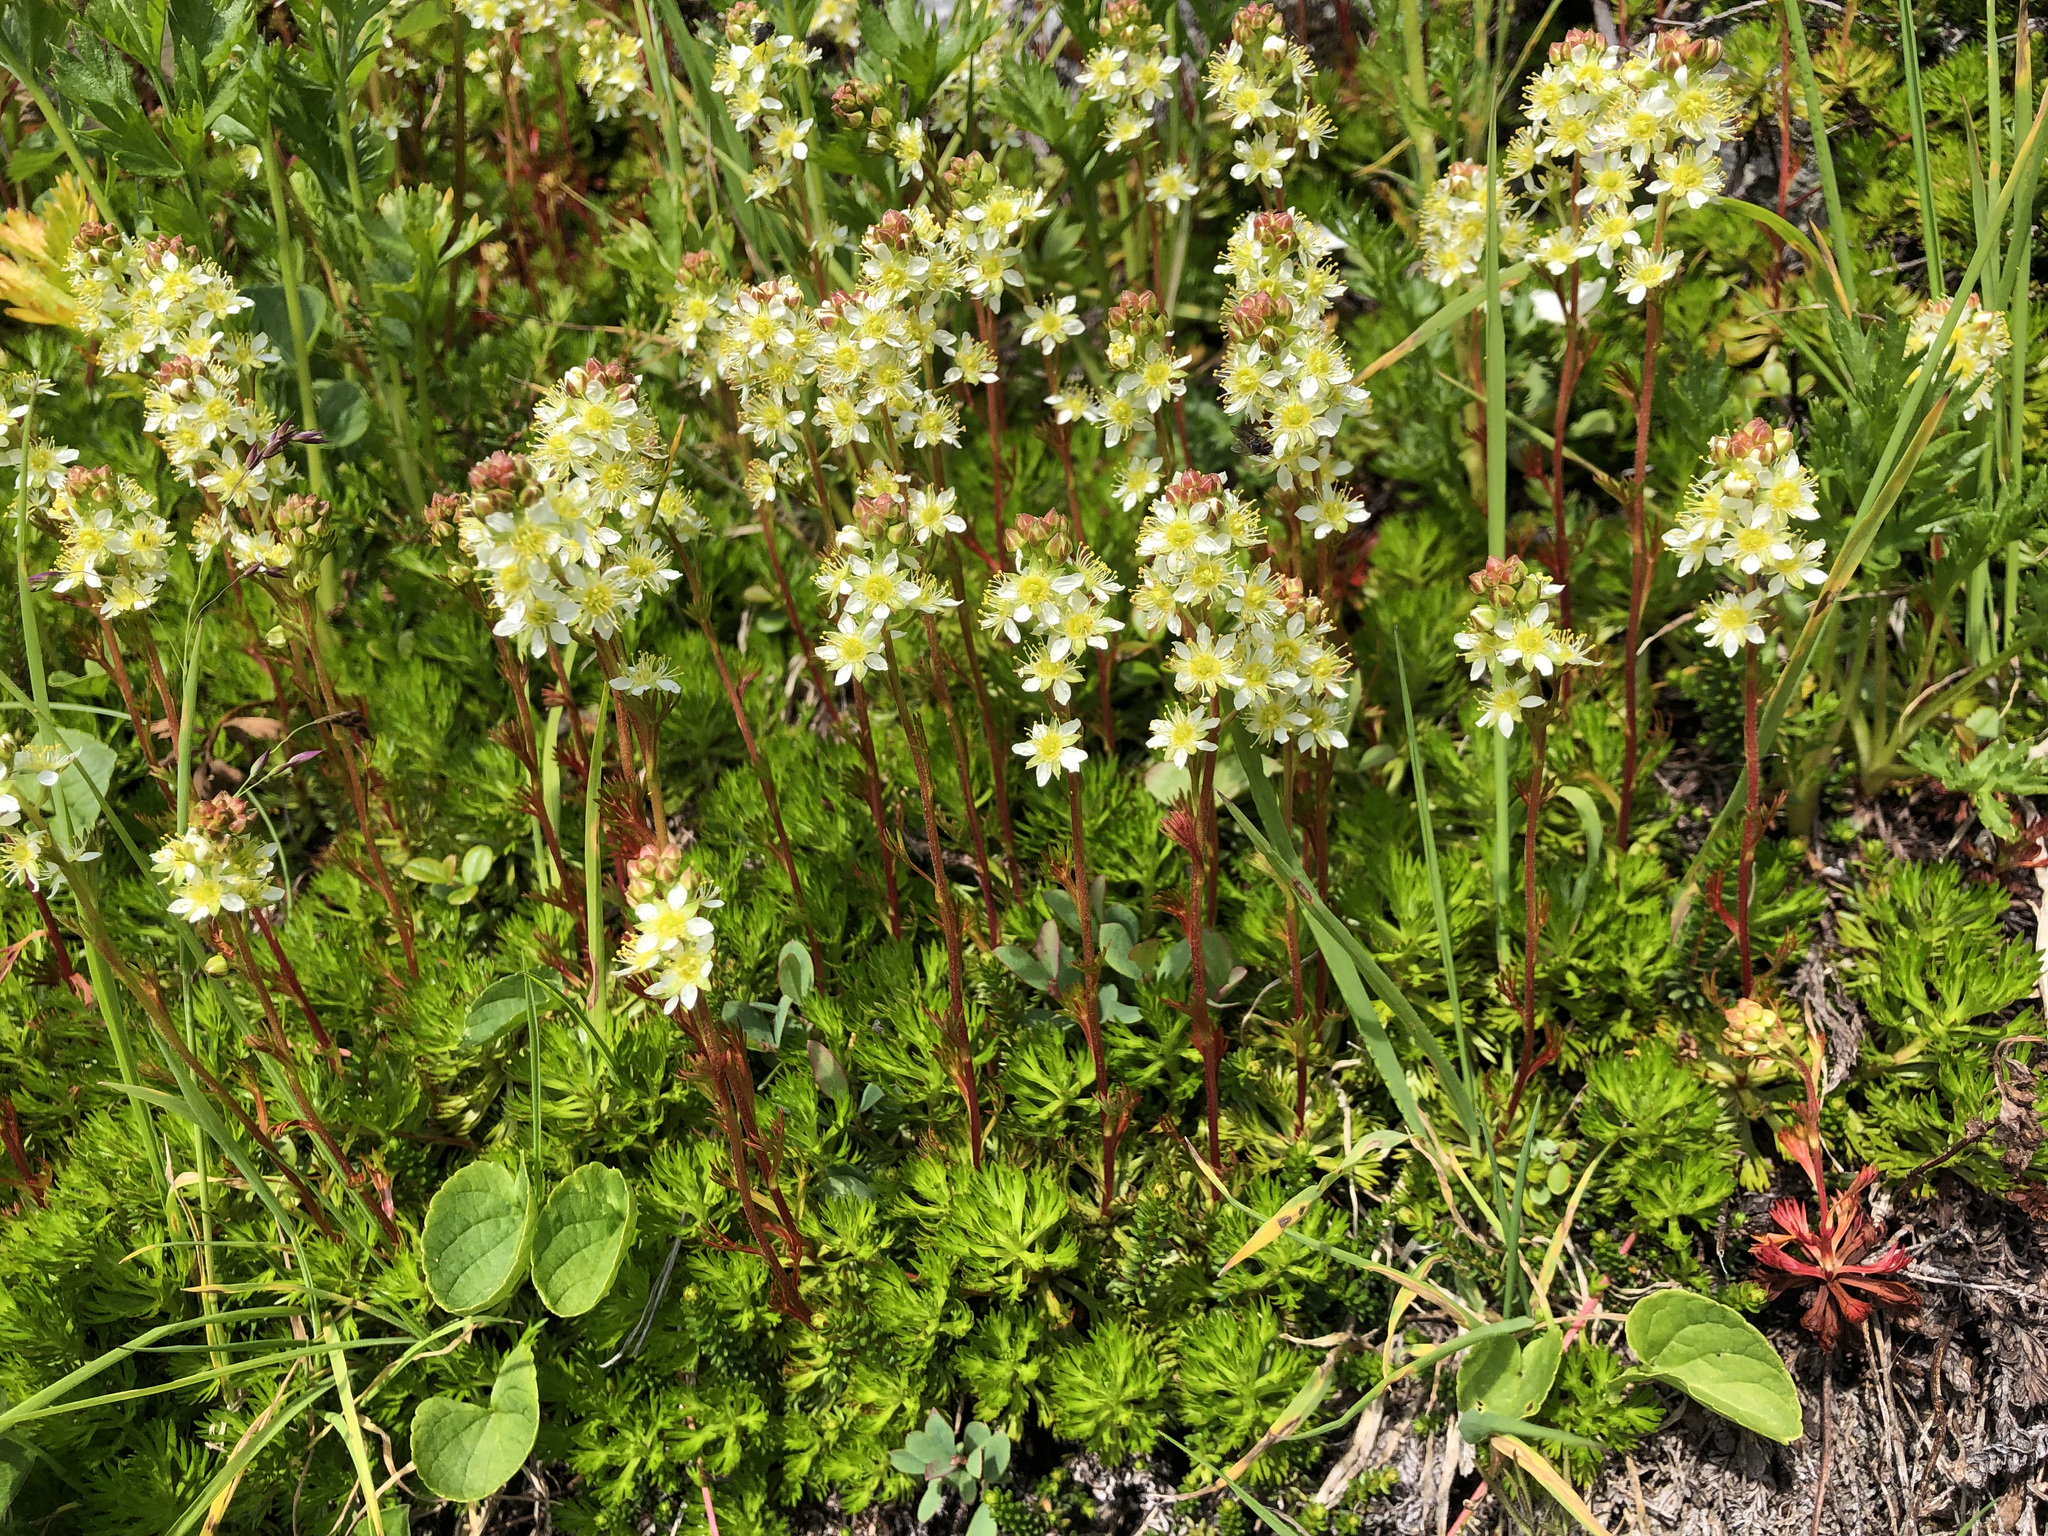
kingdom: Plantae
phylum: Tracheophyta
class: Magnoliopsida
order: Rosales
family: Rosaceae
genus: Luetkea
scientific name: Luetkea pectinata
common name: Partridgefoot
